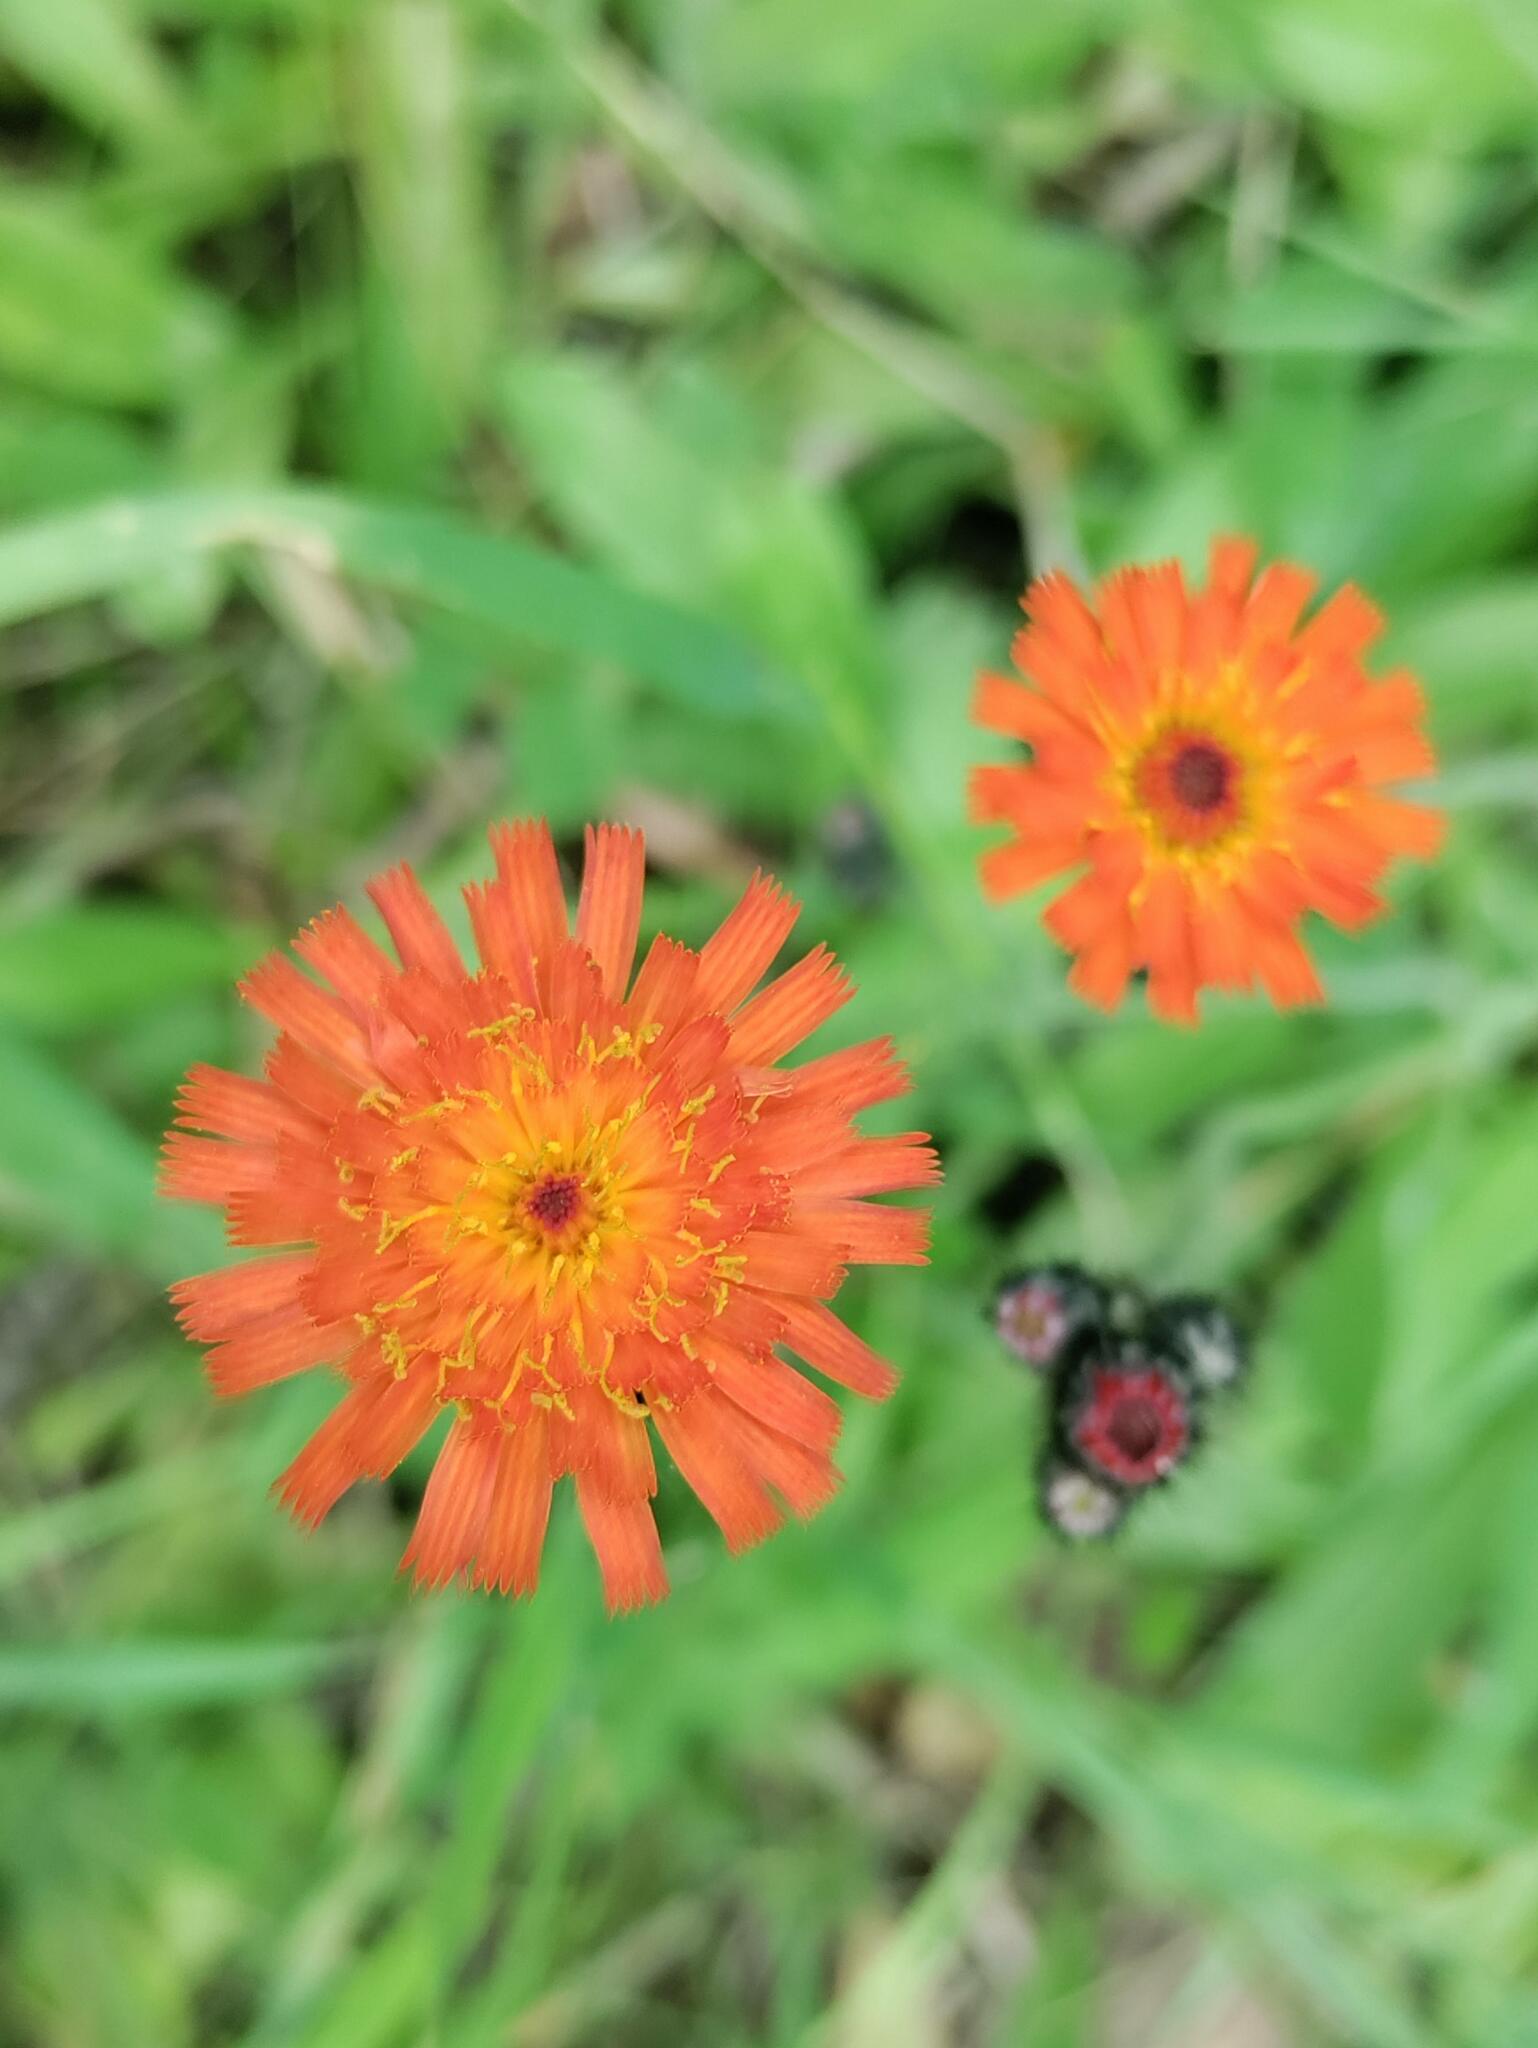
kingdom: Plantae
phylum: Tracheophyta
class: Magnoliopsida
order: Asterales
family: Asteraceae
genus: Pilosella
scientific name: Pilosella aurantiaca
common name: Fox-and-cubs
